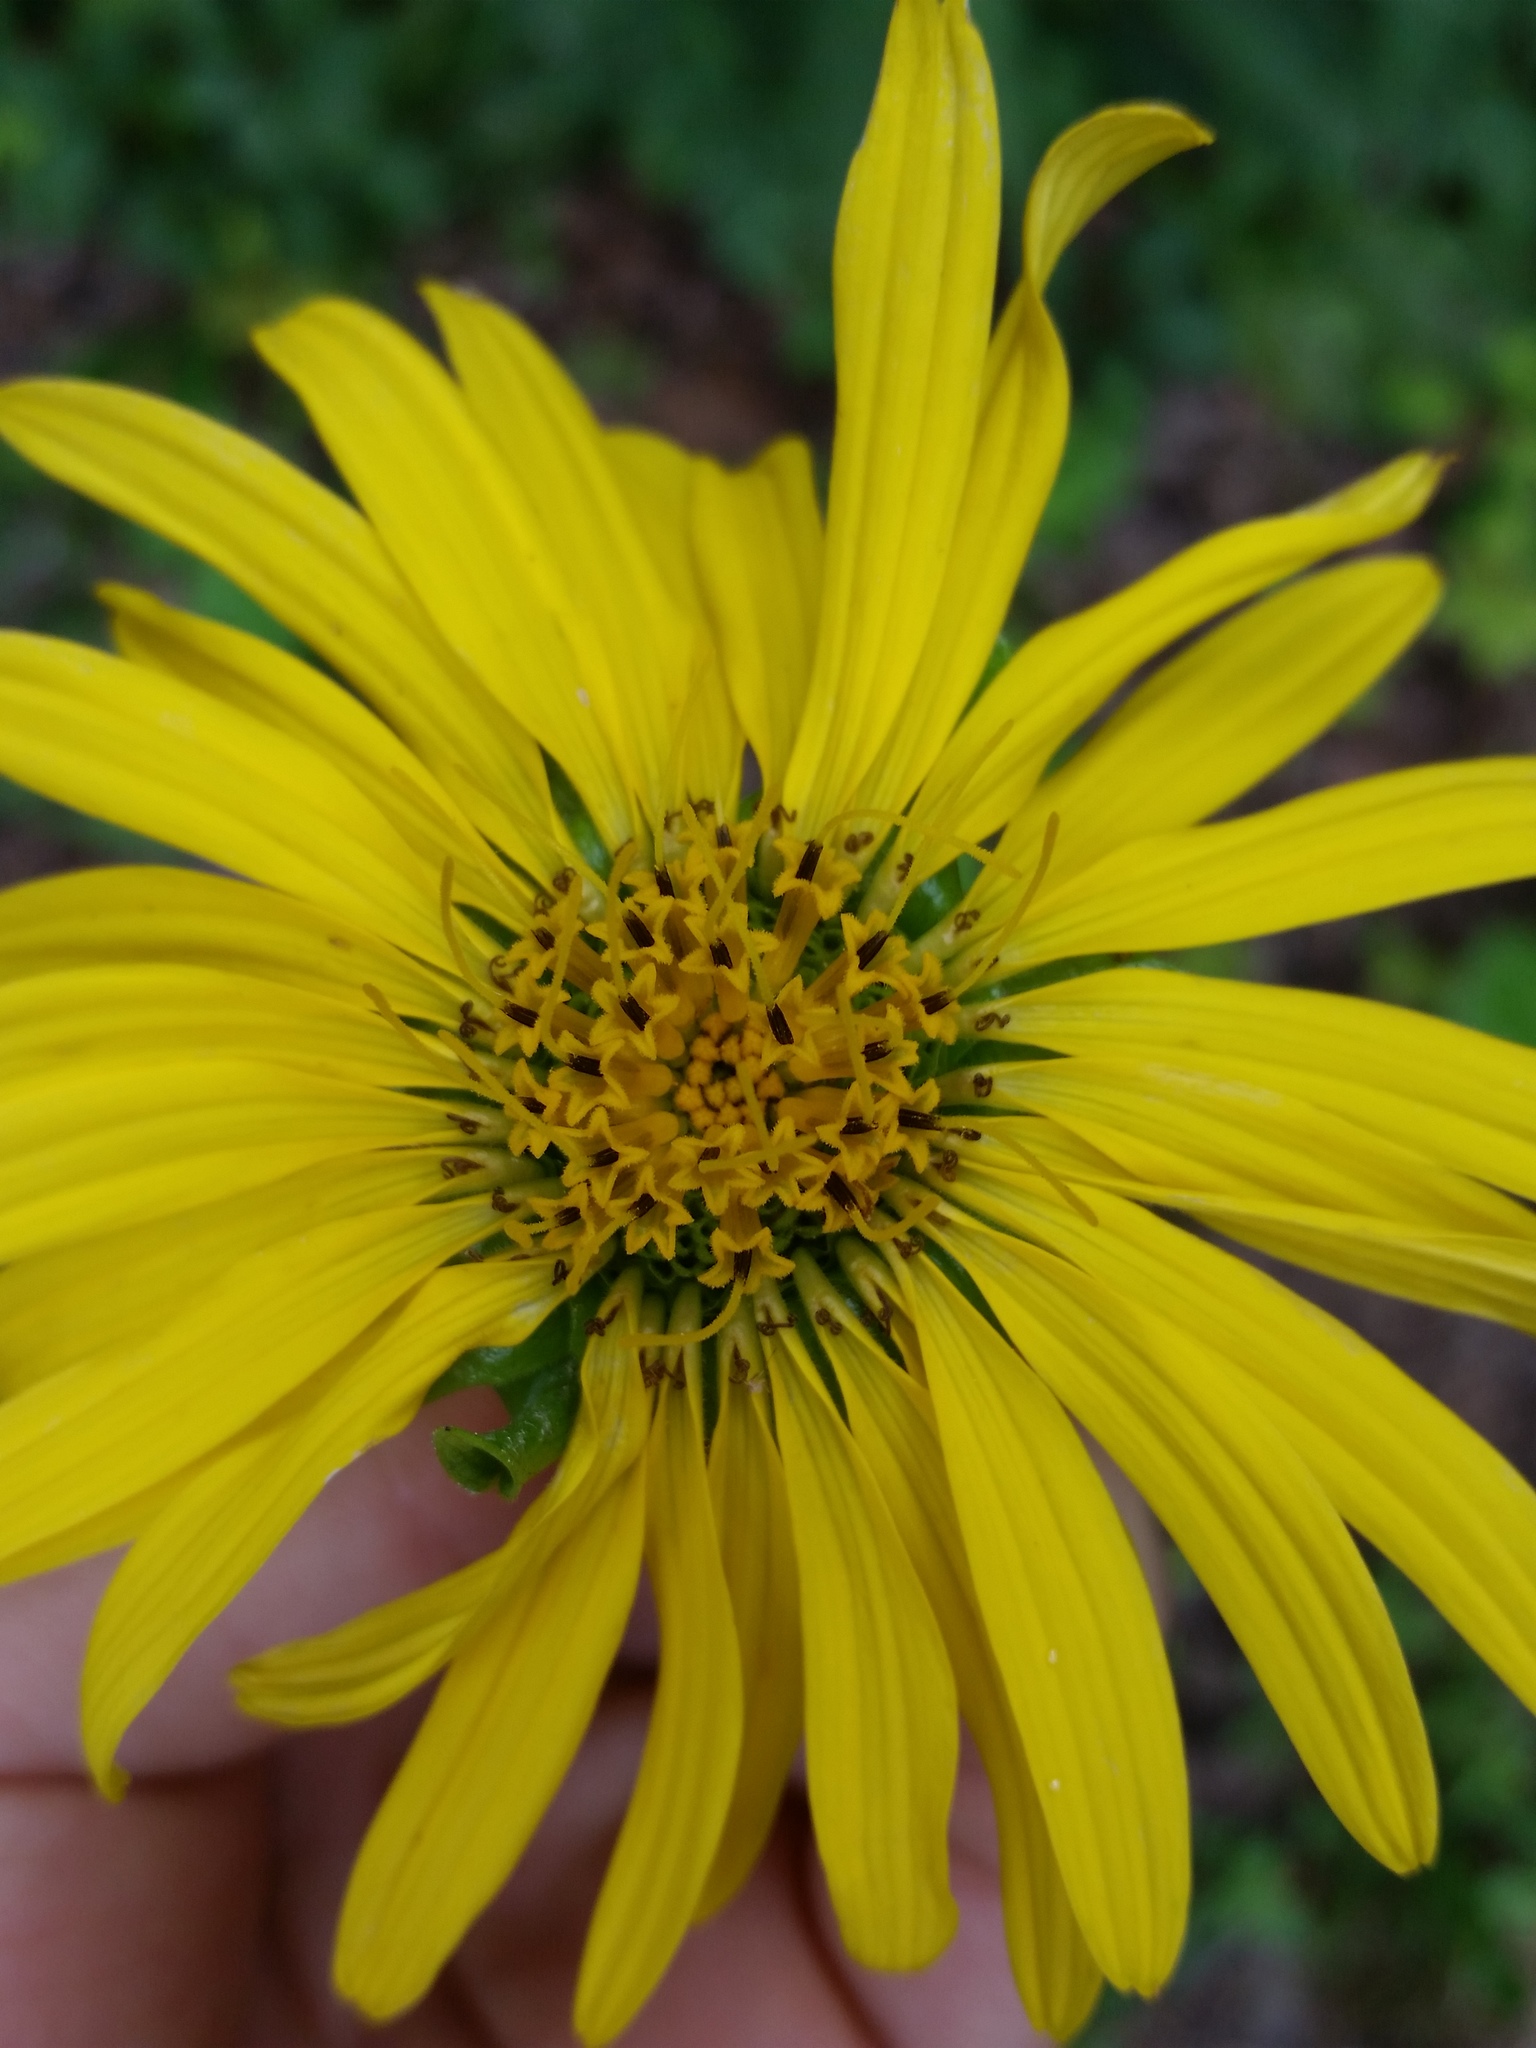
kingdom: Plantae
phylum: Tracheophyta
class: Magnoliopsida
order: Asterales
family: Asteraceae
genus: Silphium
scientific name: Silphium perfoliatum
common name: Cup-plant
